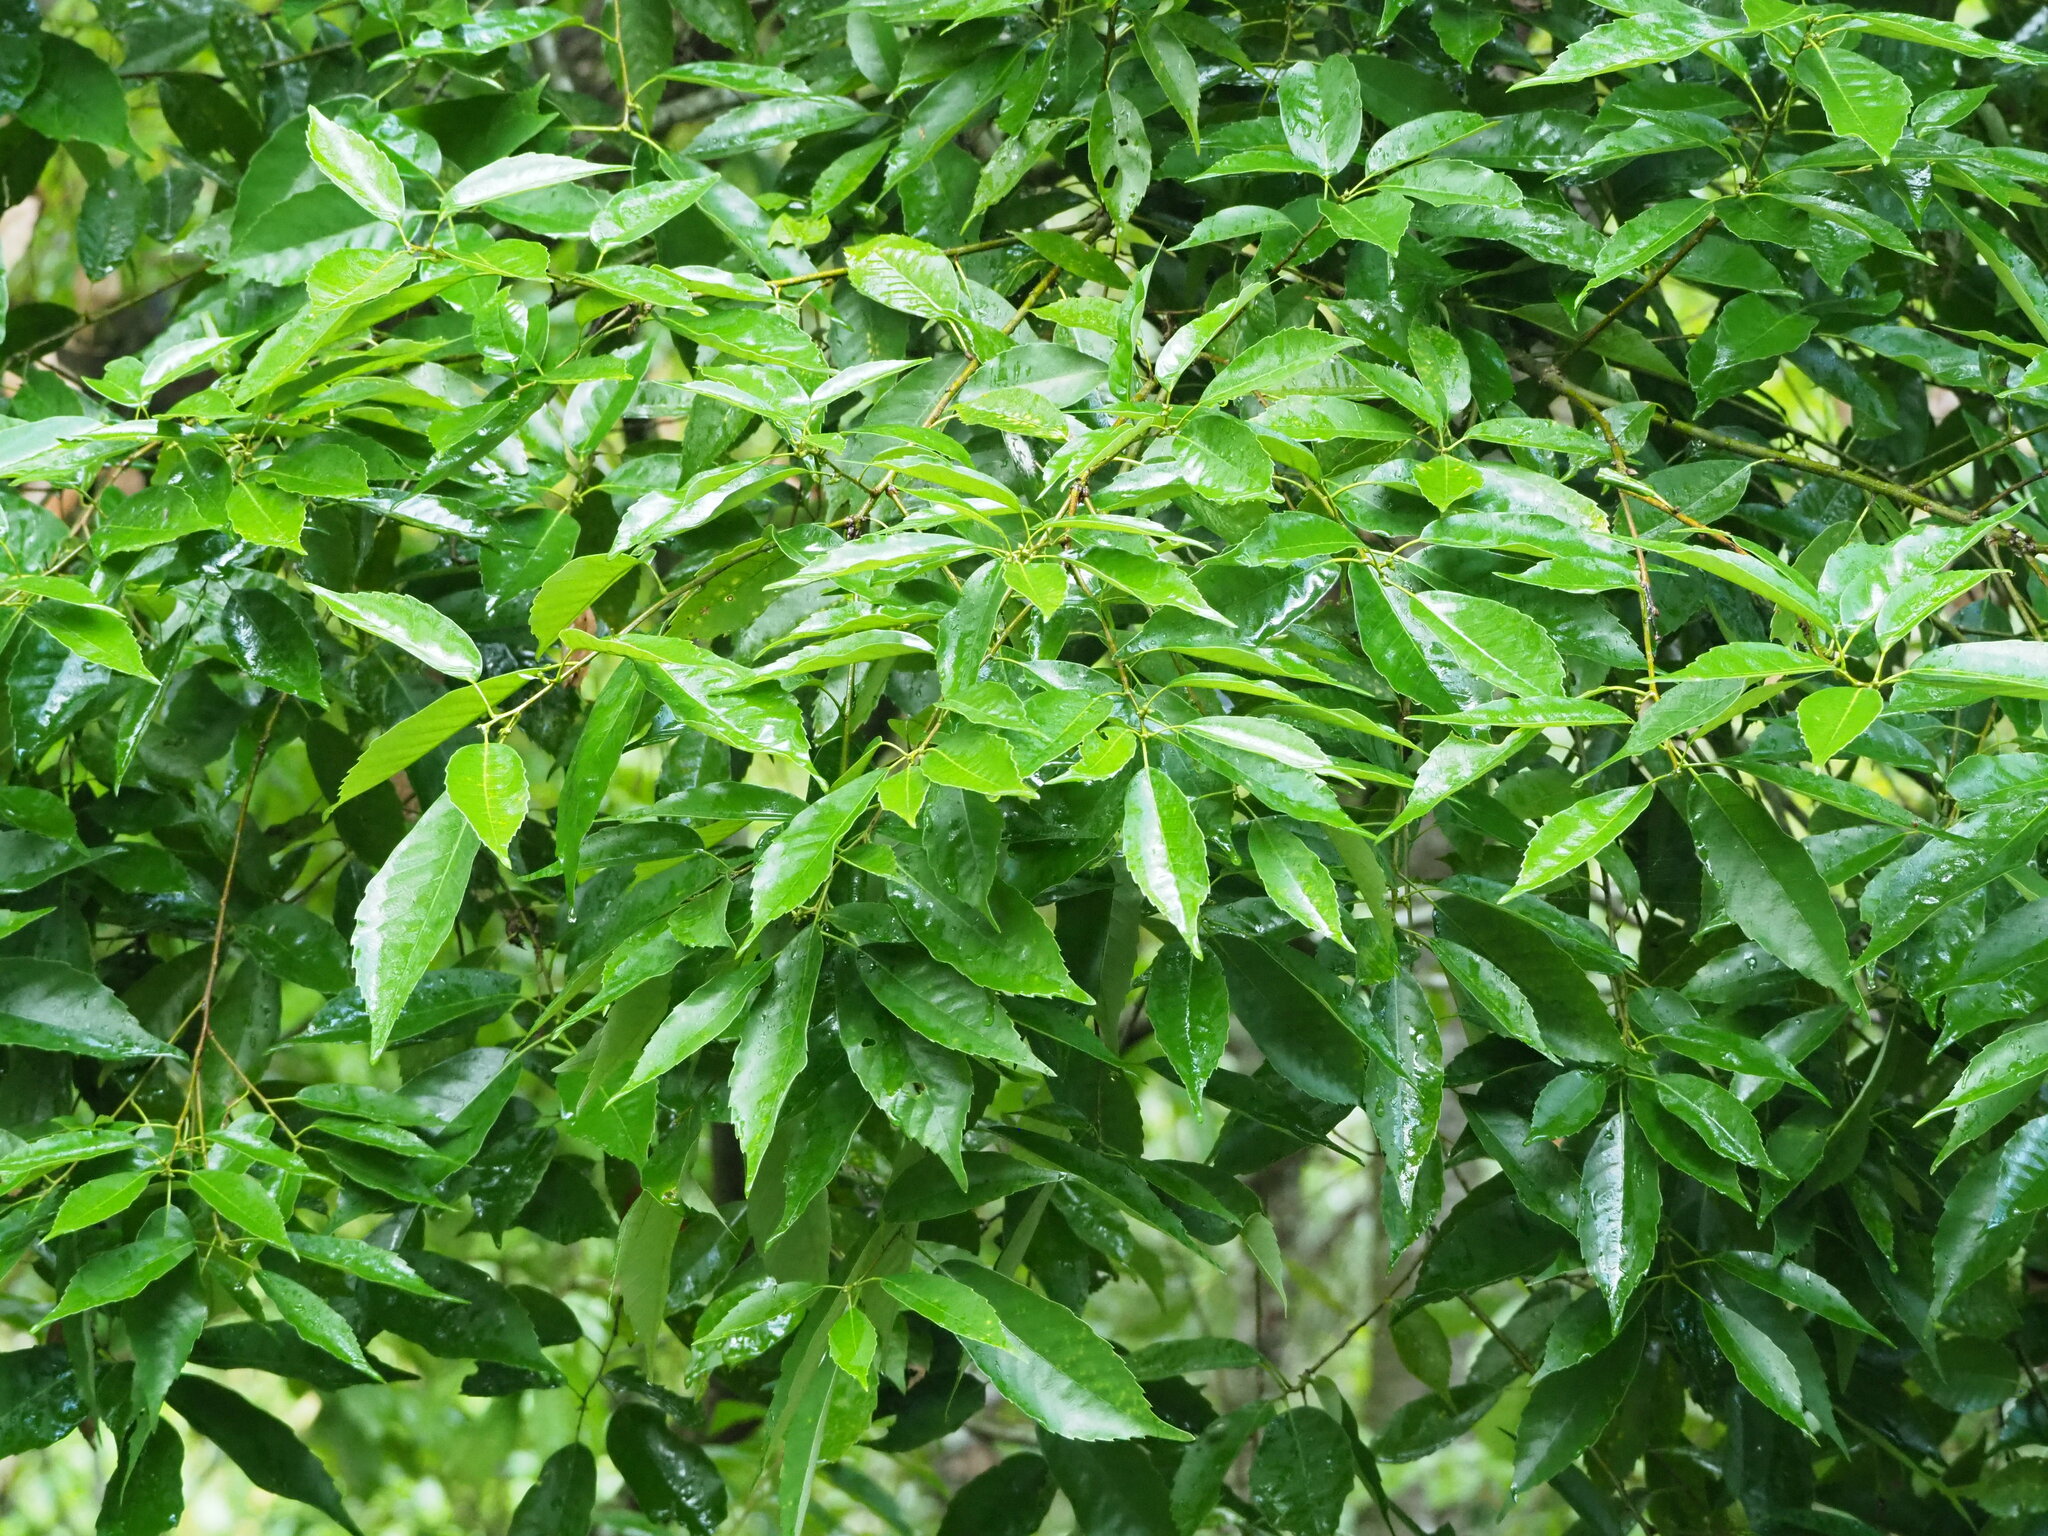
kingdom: Plantae
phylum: Tracheophyta
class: Magnoliopsida
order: Fagales
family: Fagaceae
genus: Quercus
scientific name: Quercus glauca
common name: Ring-cup oak
